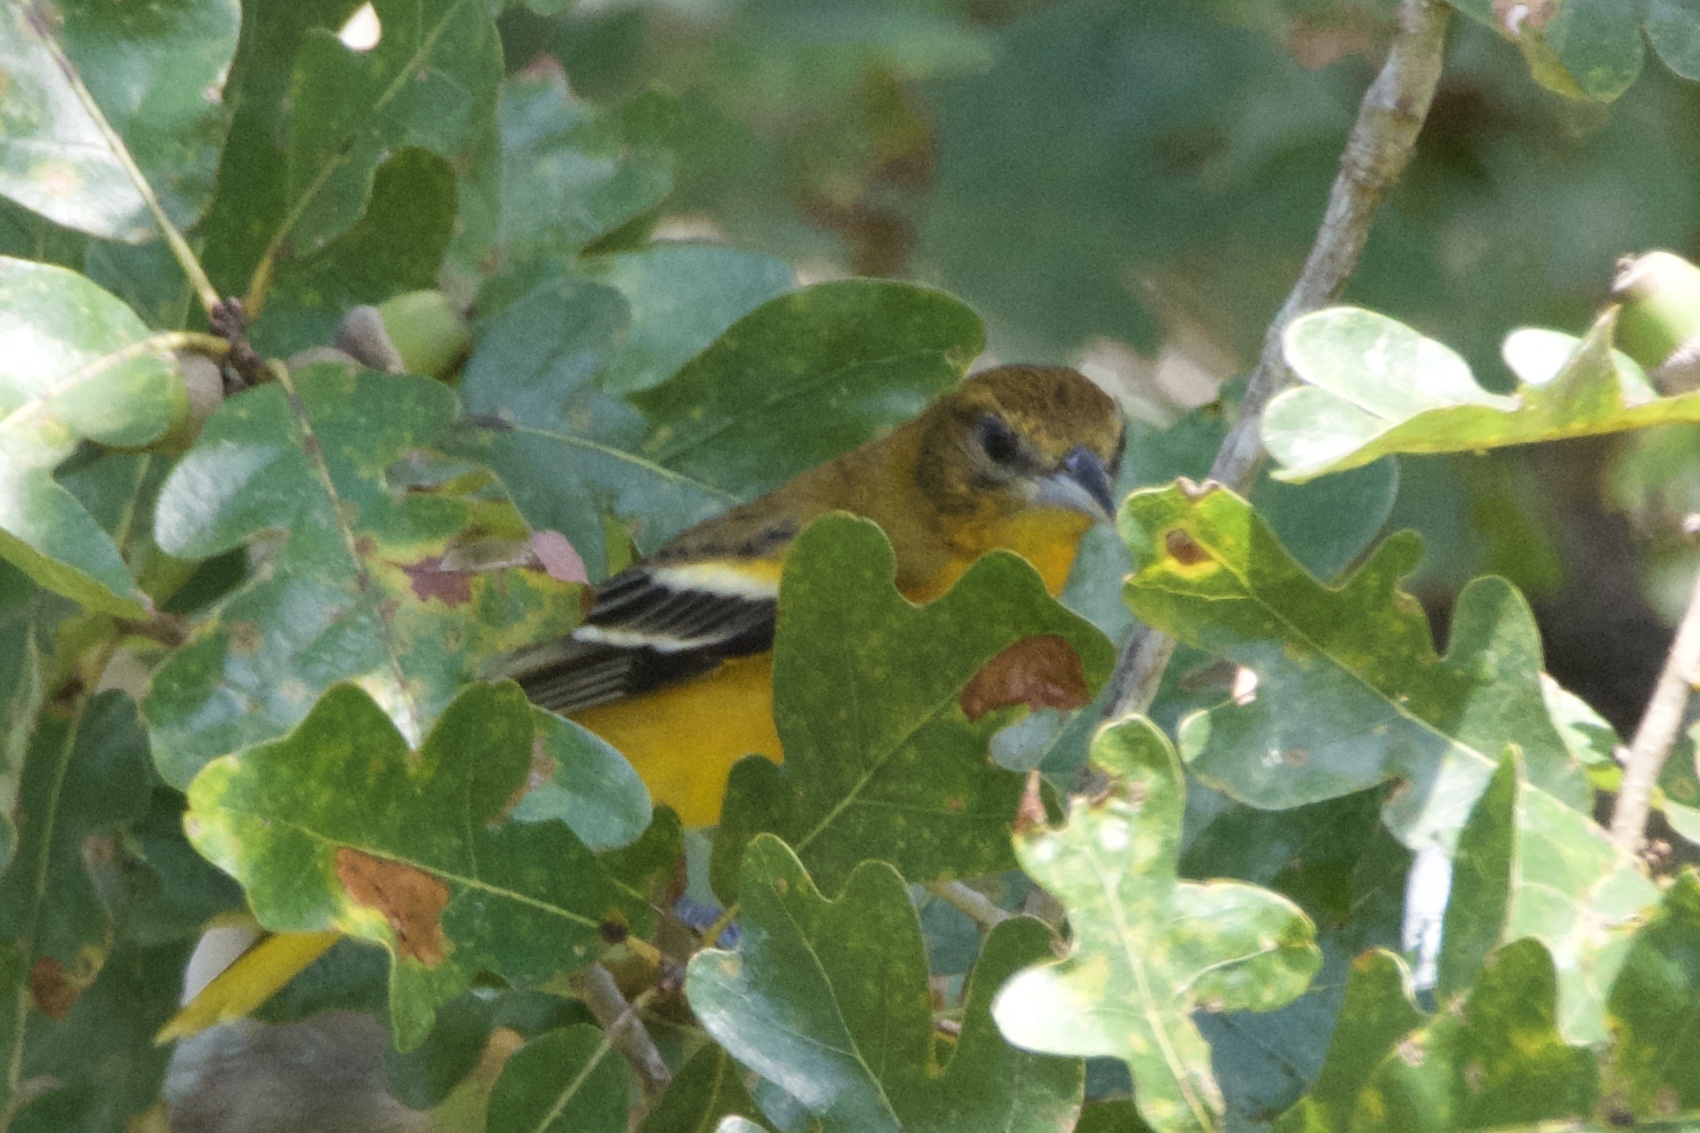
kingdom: Animalia
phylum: Chordata
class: Aves
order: Passeriformes
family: Icteridae
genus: Icterus
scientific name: Icterus galbula
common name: Baltimore oriole
